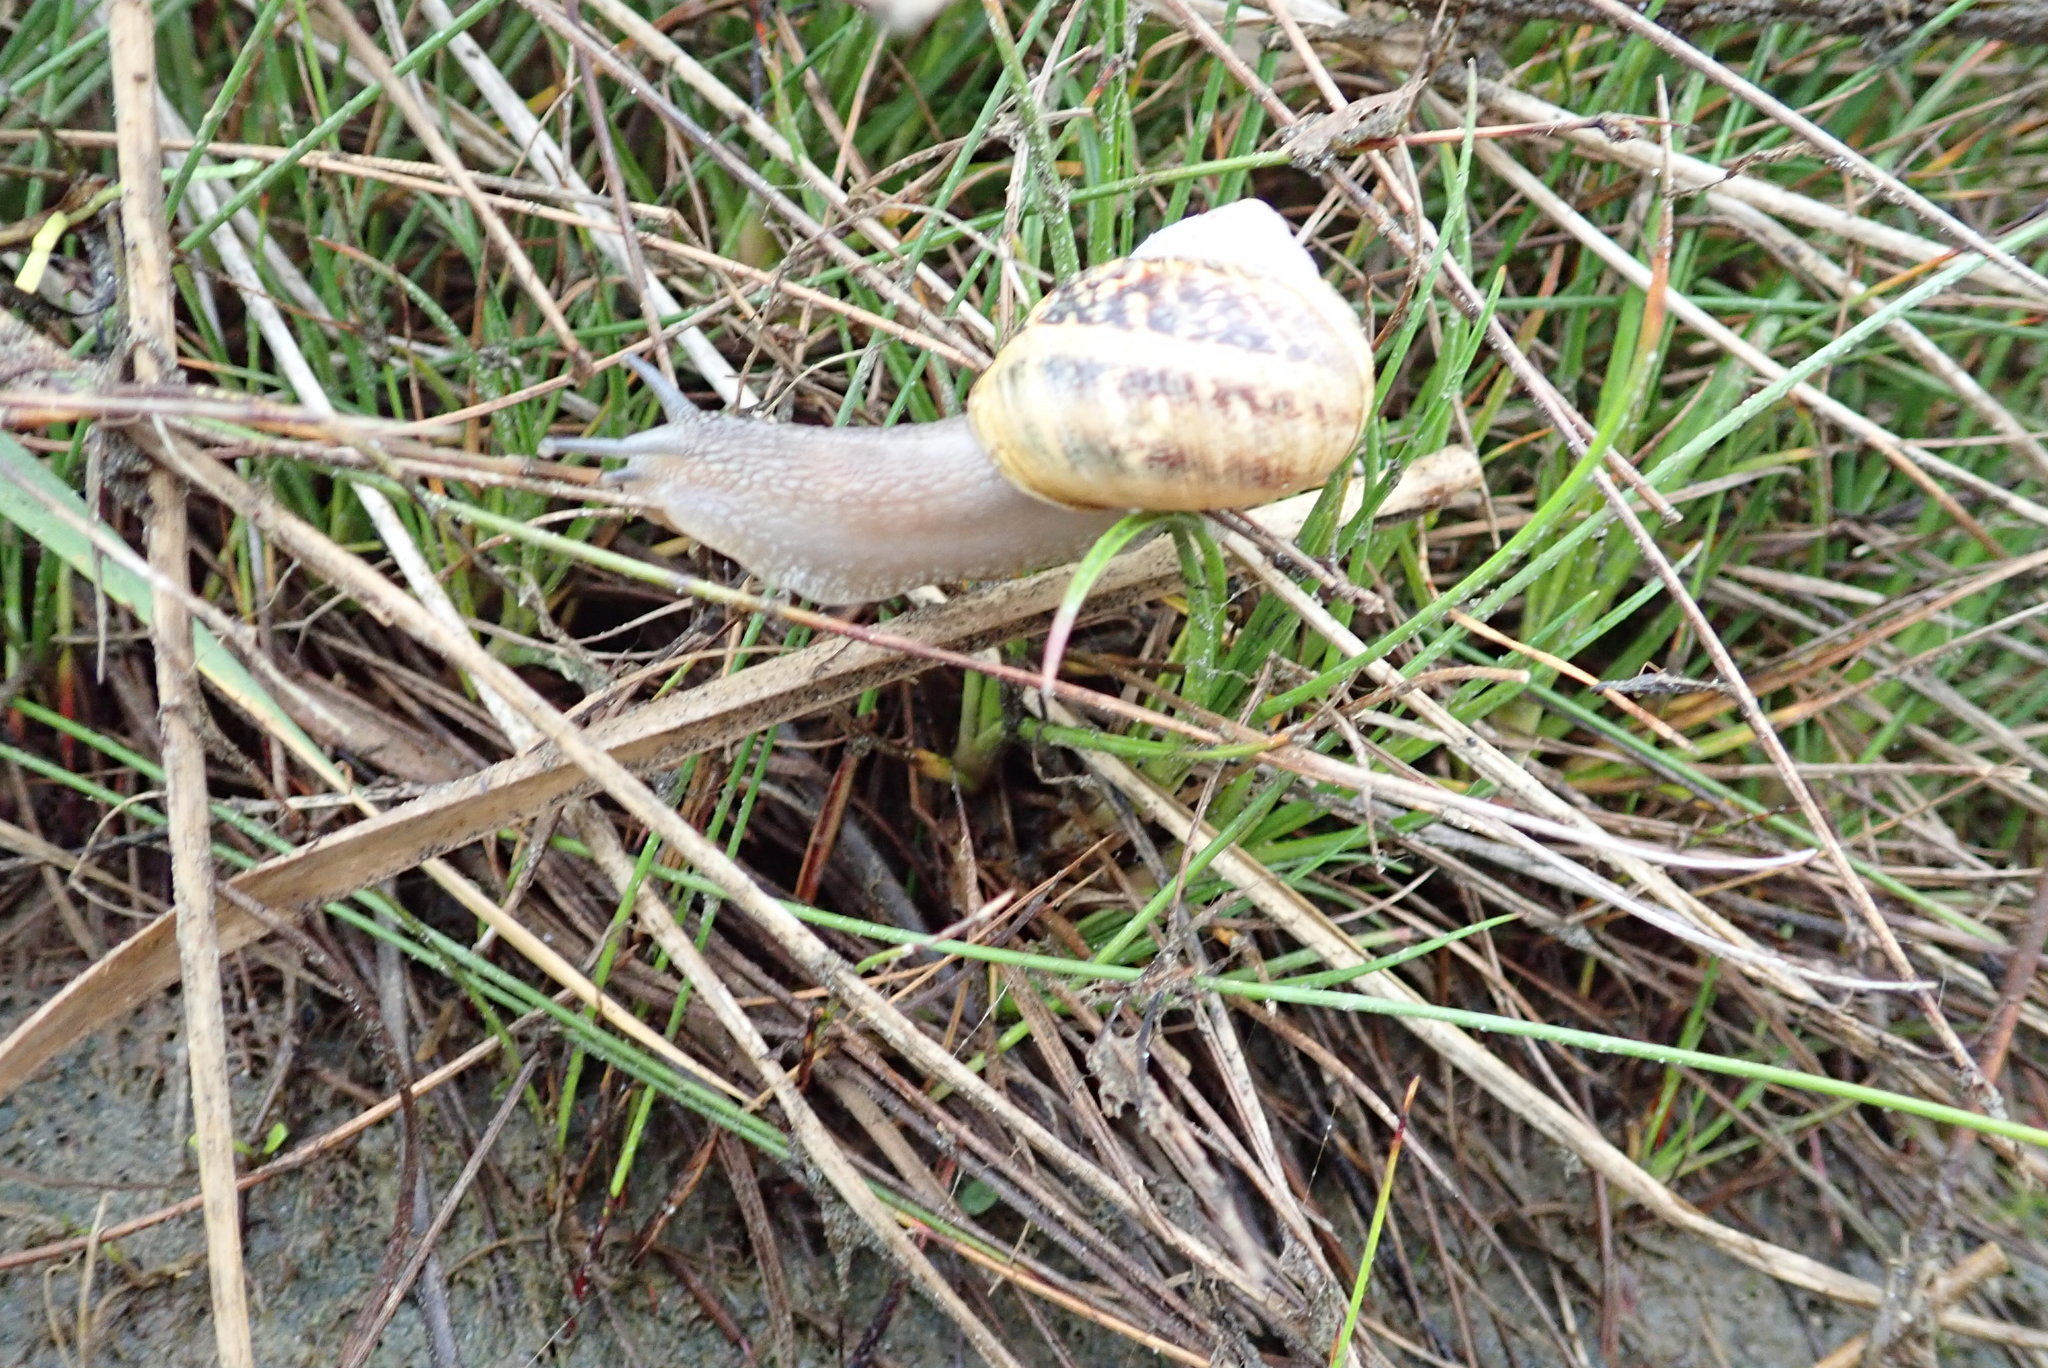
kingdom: Animalia
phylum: Mollusca
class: Gastropoda
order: Stylommatophora
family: Helicidae
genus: Cornu
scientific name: Cornu aspersum
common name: Brown garden snail
